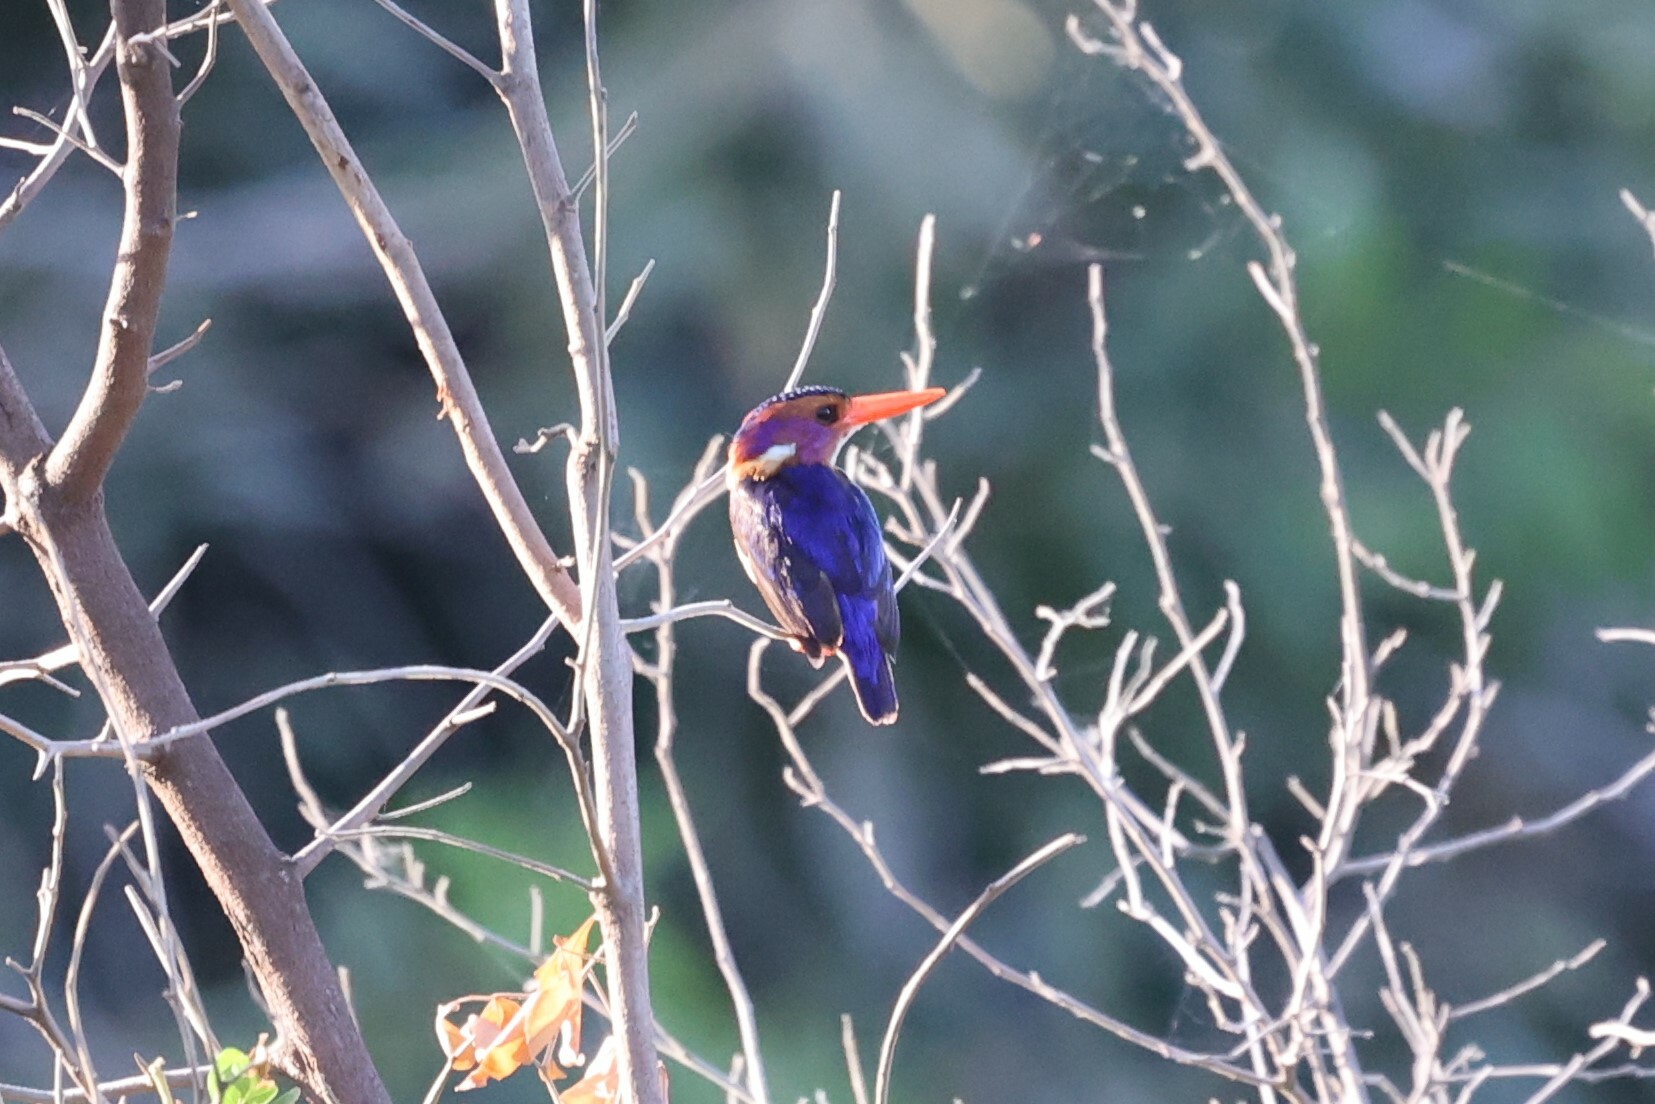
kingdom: Animalia
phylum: Chordata
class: Aves
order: Coraciiformes
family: Alcedinidae
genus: Ispidina
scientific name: Ispidina picta
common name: African pygmy-kingfisher
